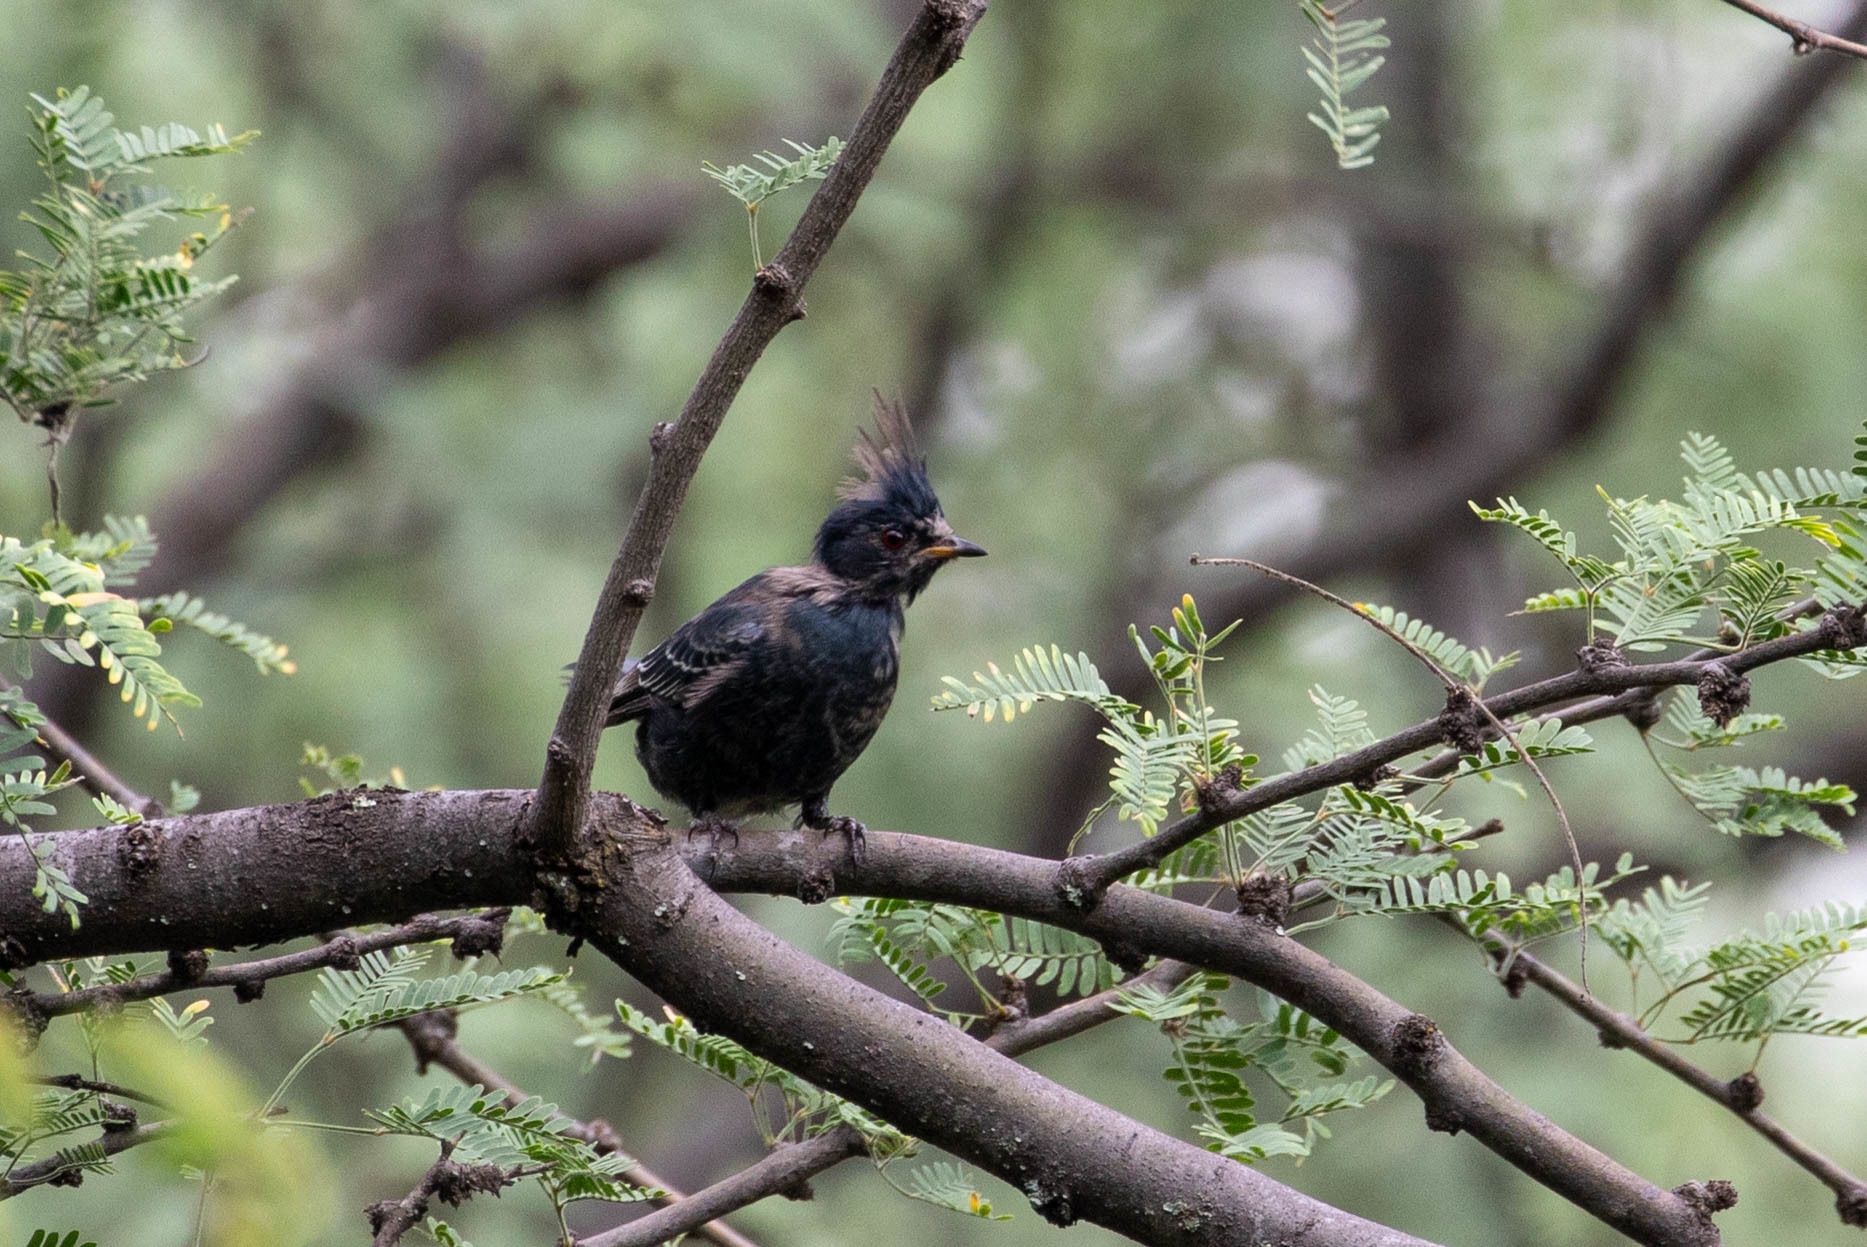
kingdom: Animalia
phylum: Chordata
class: Aves
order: Passeriformes
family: Ptilogonatidae
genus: Phainopepla
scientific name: Phainopepla nitens
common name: Phainopepla
